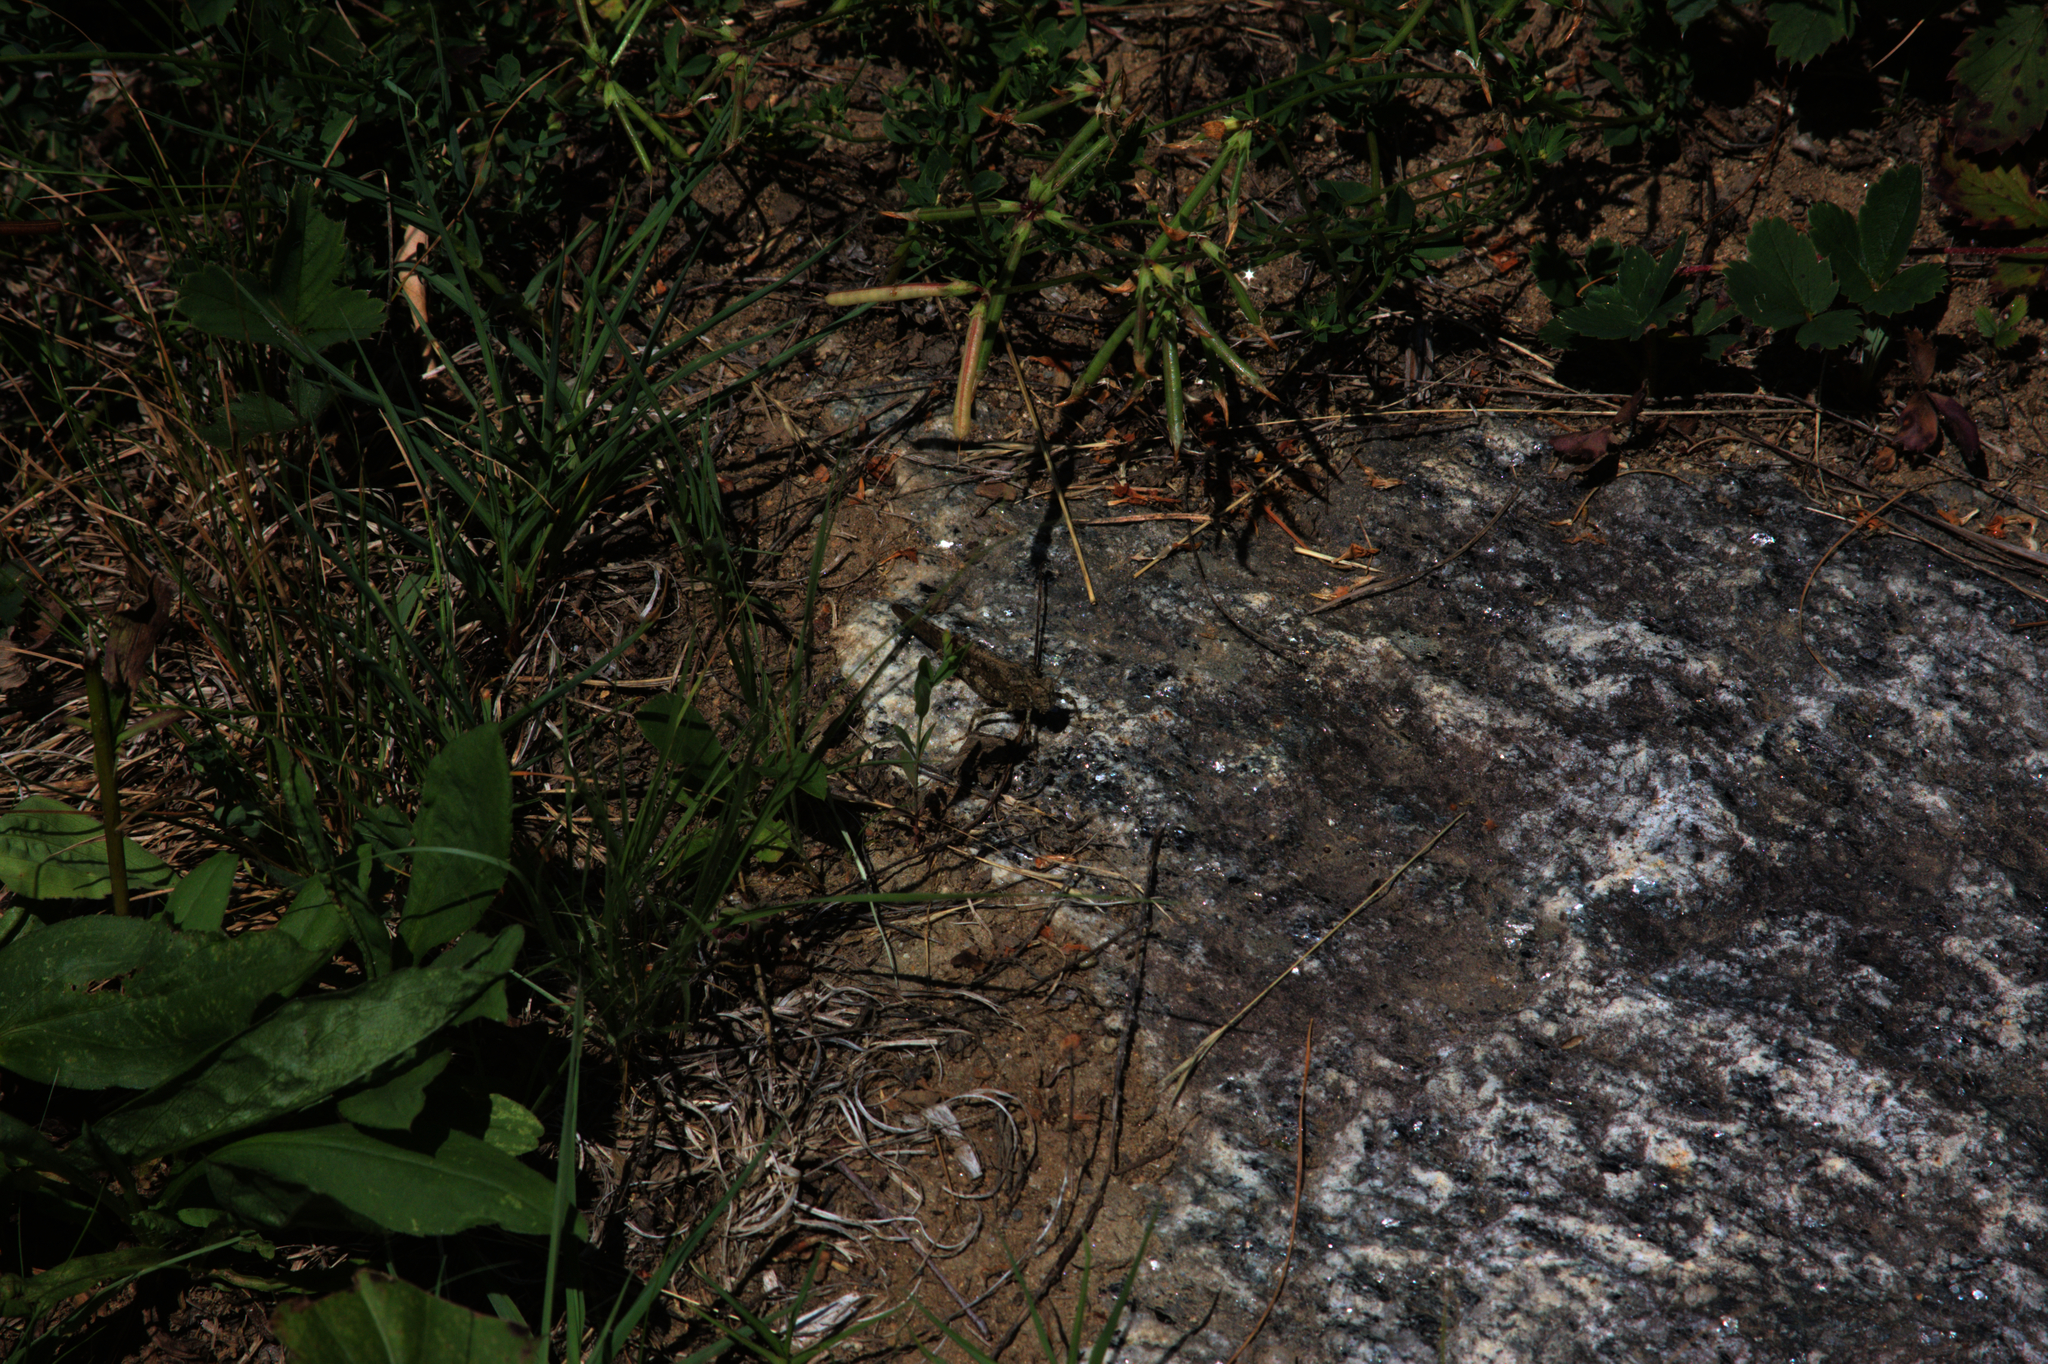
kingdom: Animalia
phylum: Arthropoda
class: Insecta
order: Orthoptera
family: Acrididae
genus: Dissosteira
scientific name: Dissosteira carolina
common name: Carolina grasshopper
